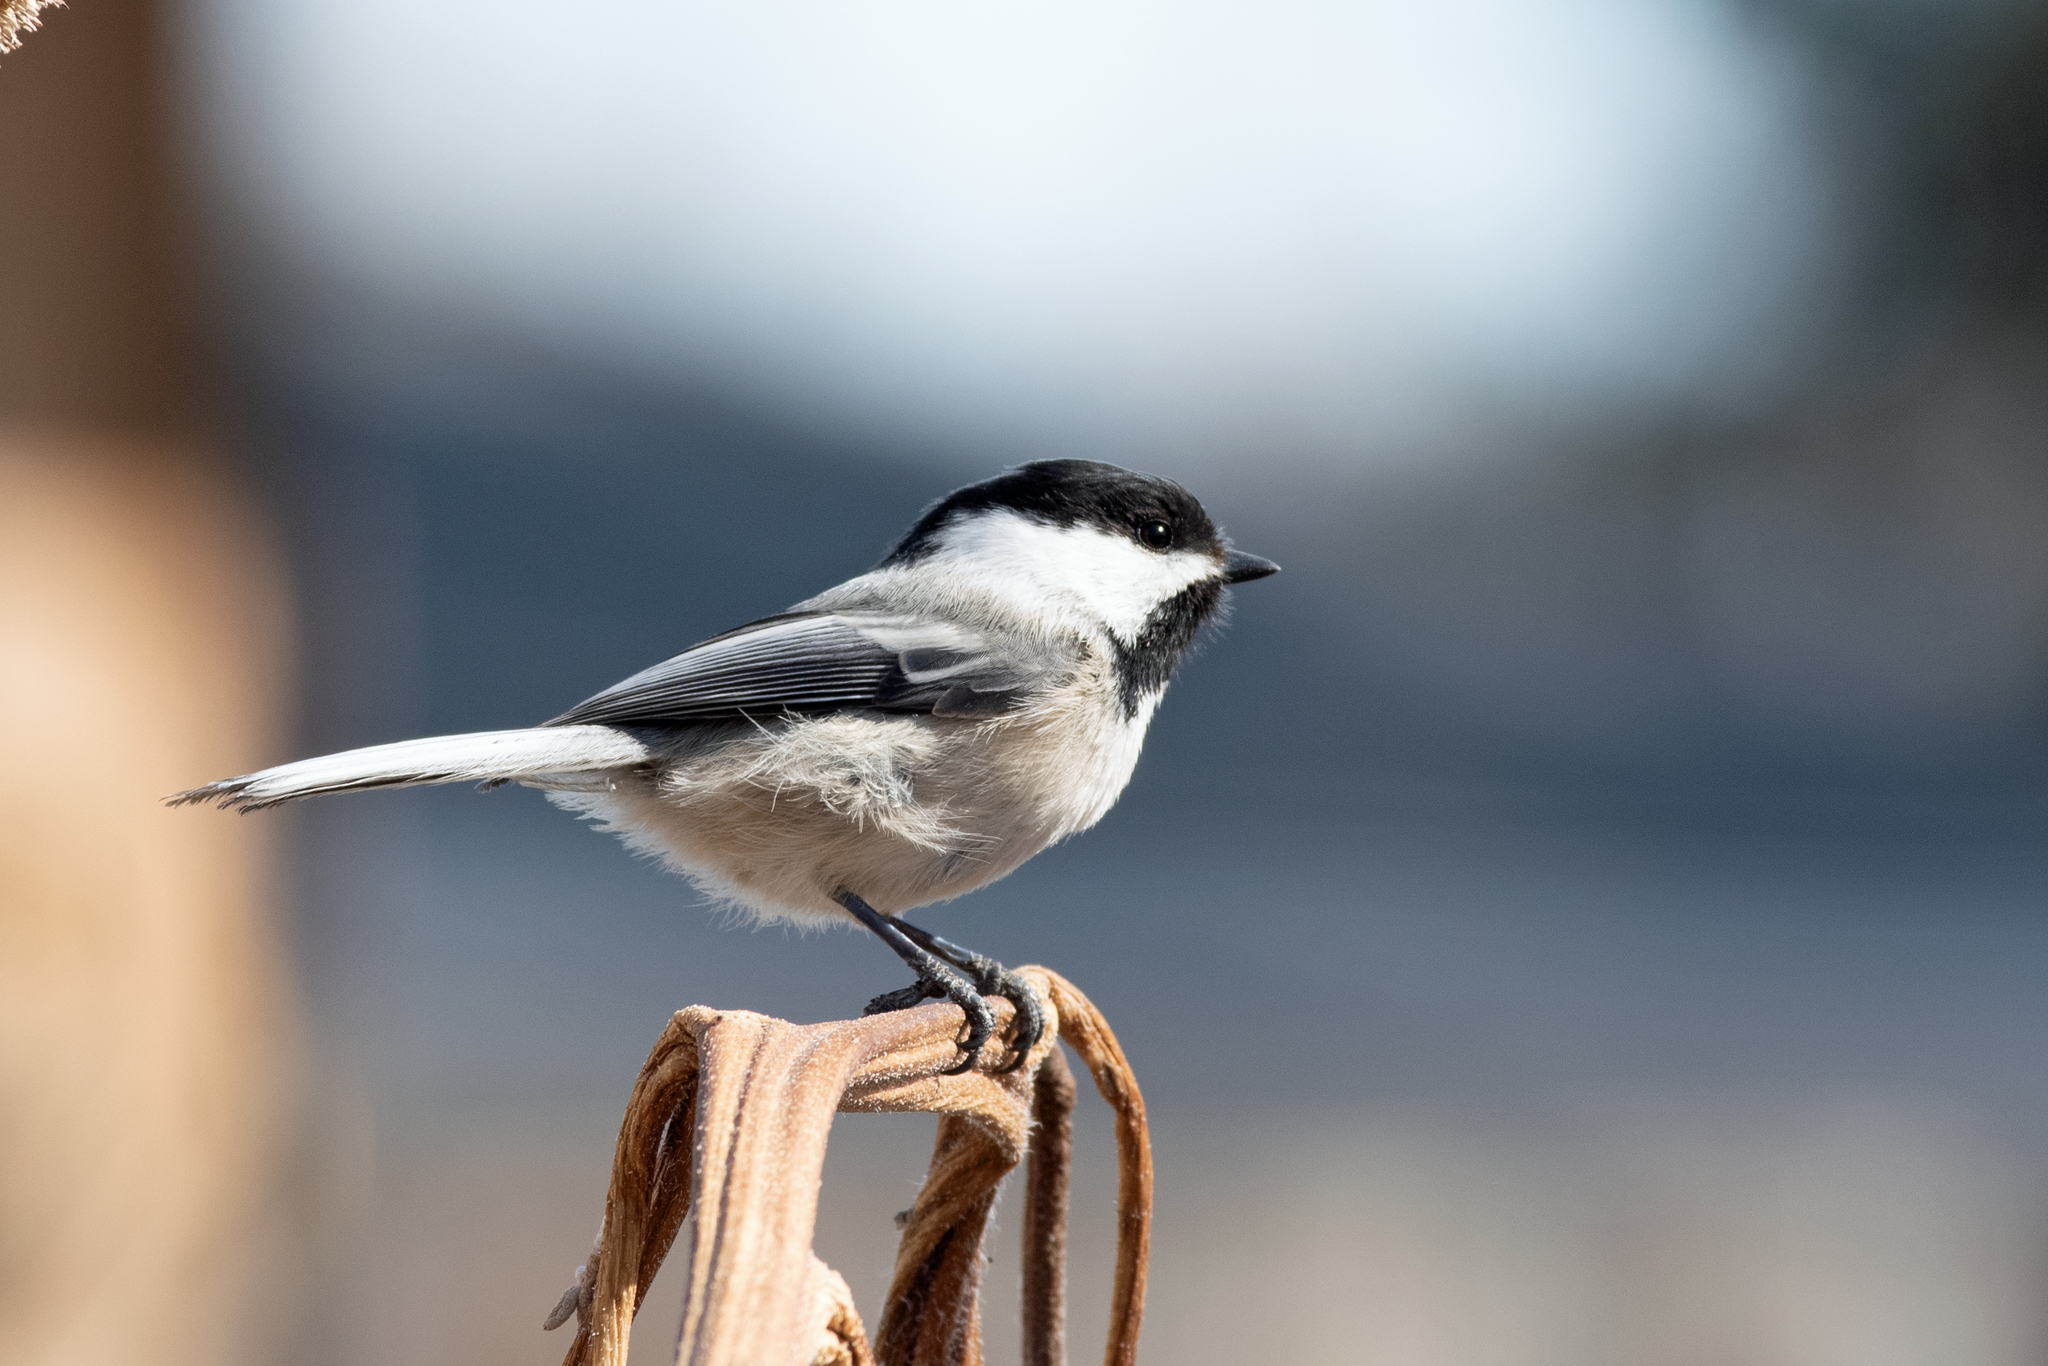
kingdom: Animalia
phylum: Chordata
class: Aves
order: Passeriformes
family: Paridae
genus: Poecile
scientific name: Poecile atricapillus
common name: Black-capped chickadee
